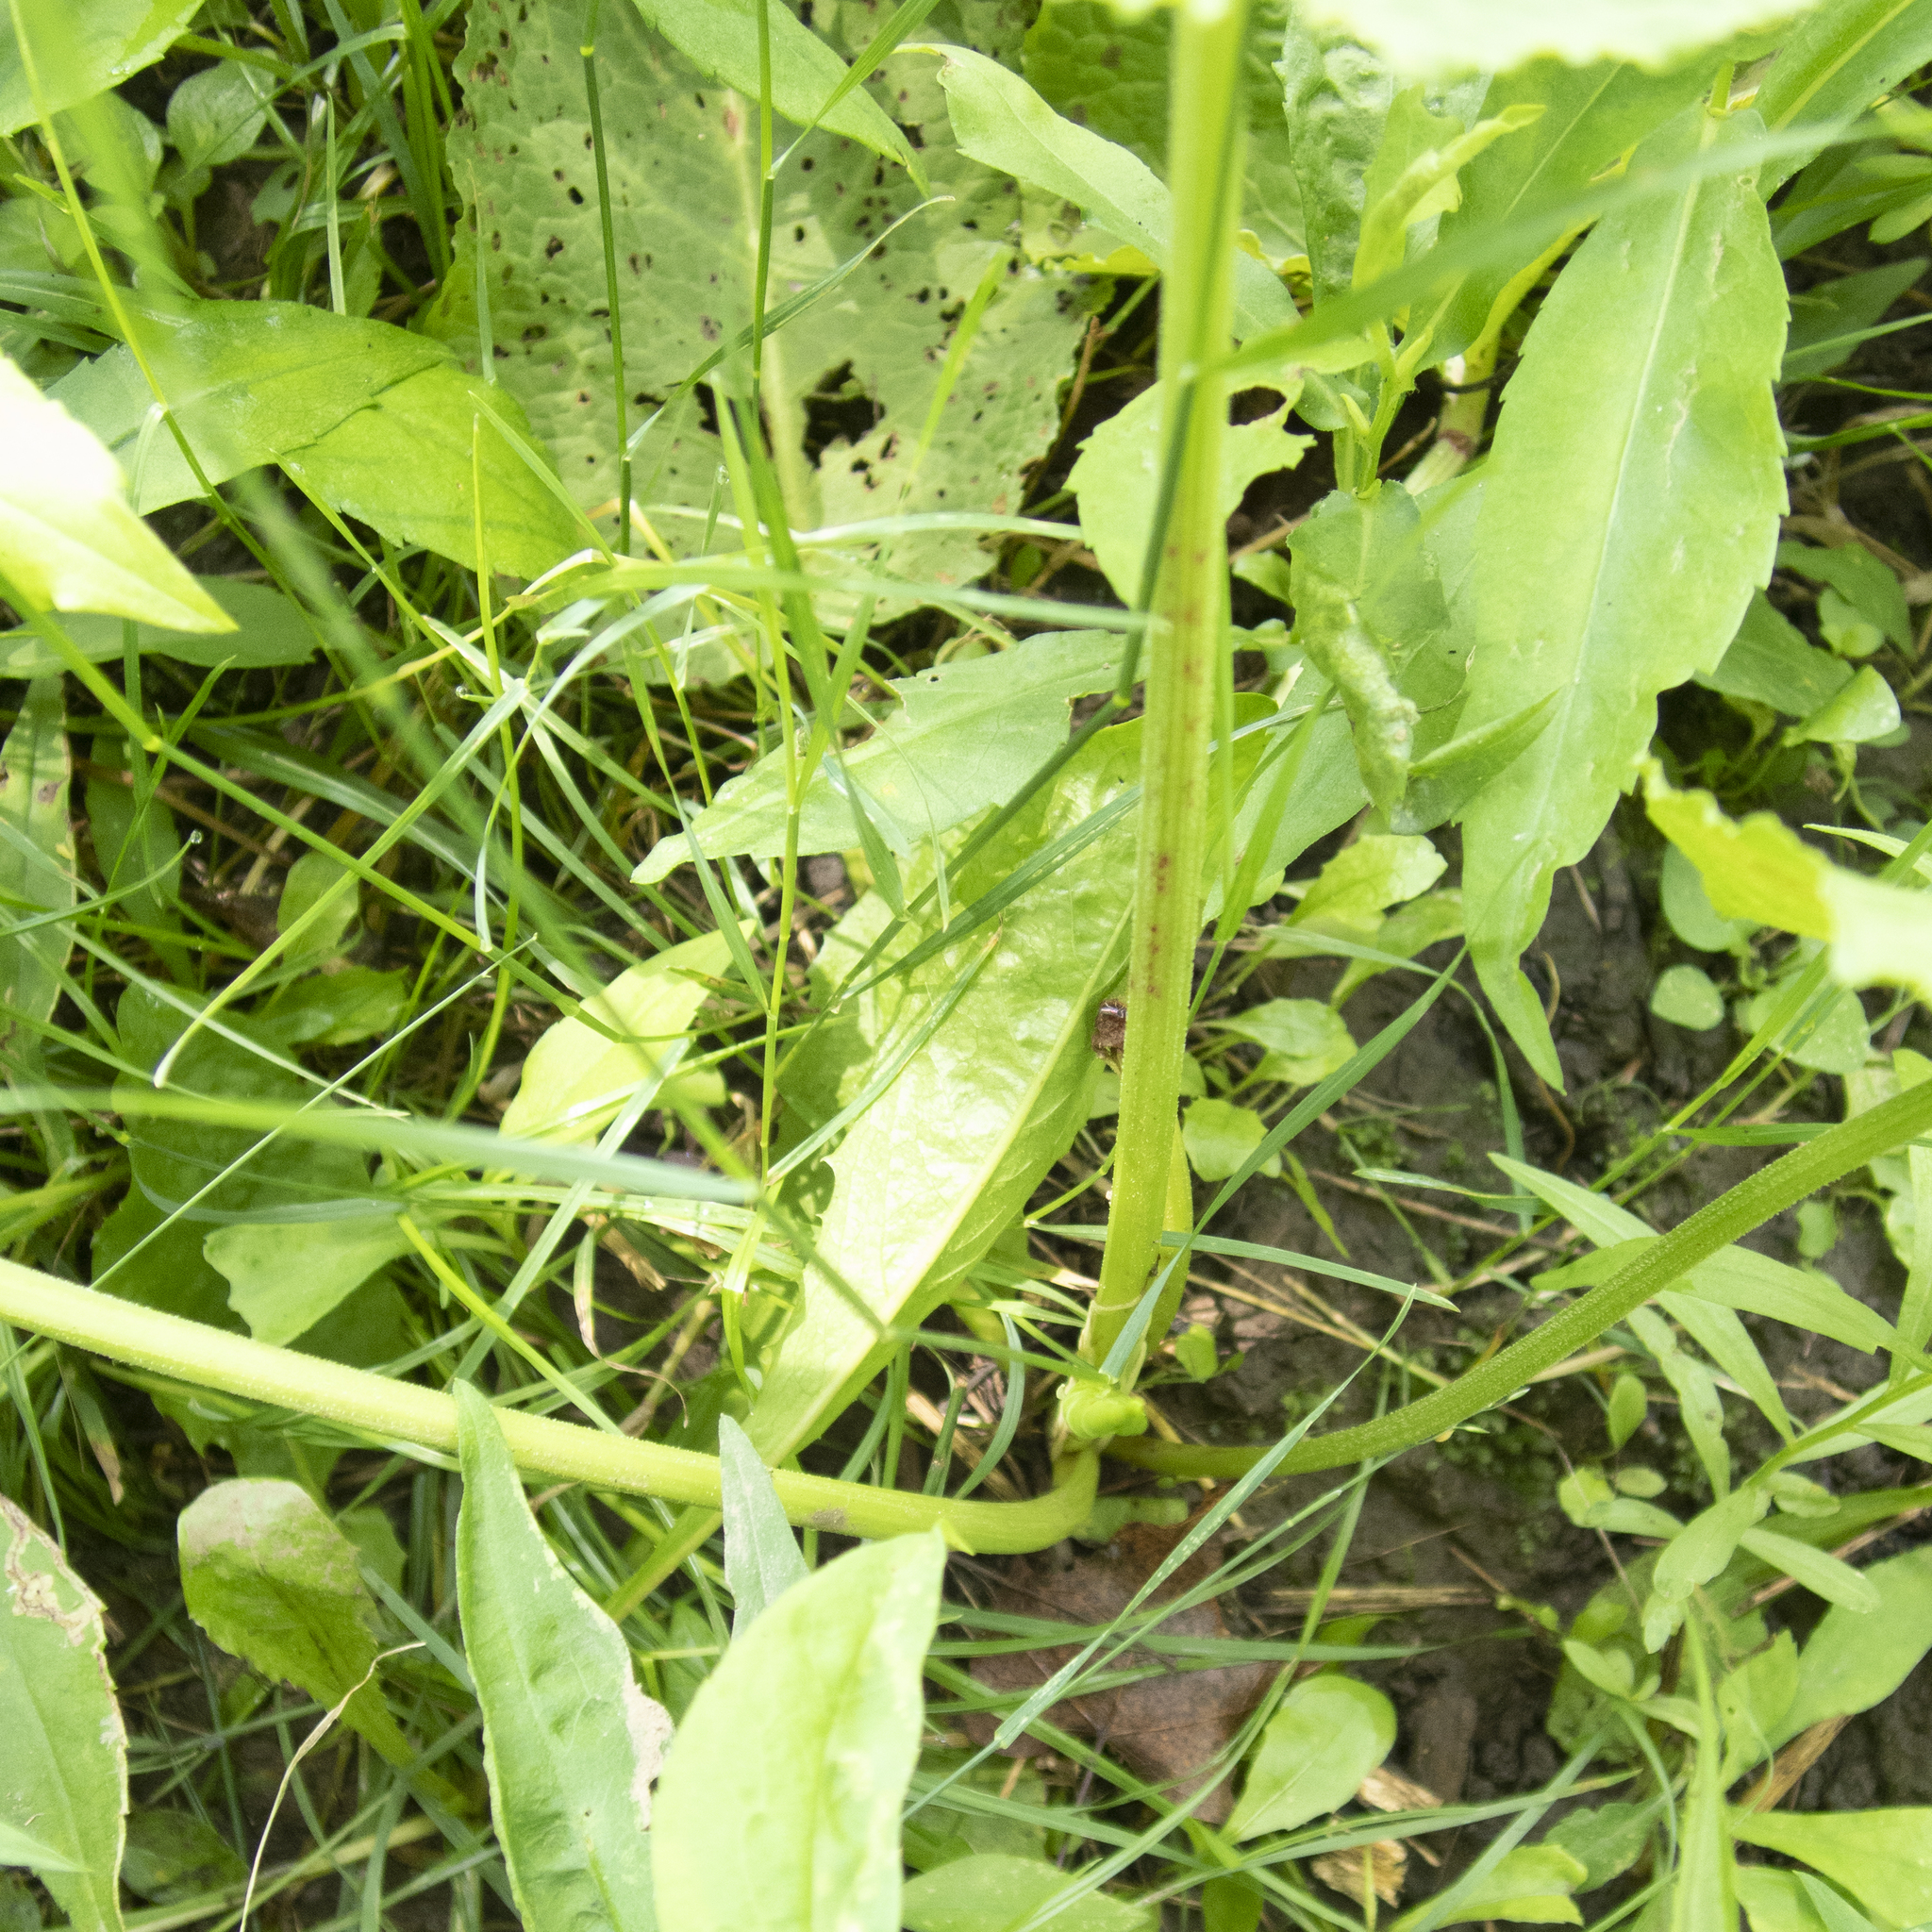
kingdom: Plantae
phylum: Tracheophyta
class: Magnoliopsida
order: Caryophyllales
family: Polygonaceae
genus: Rumex
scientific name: Rumex obtusifolius
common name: Bitter dock
